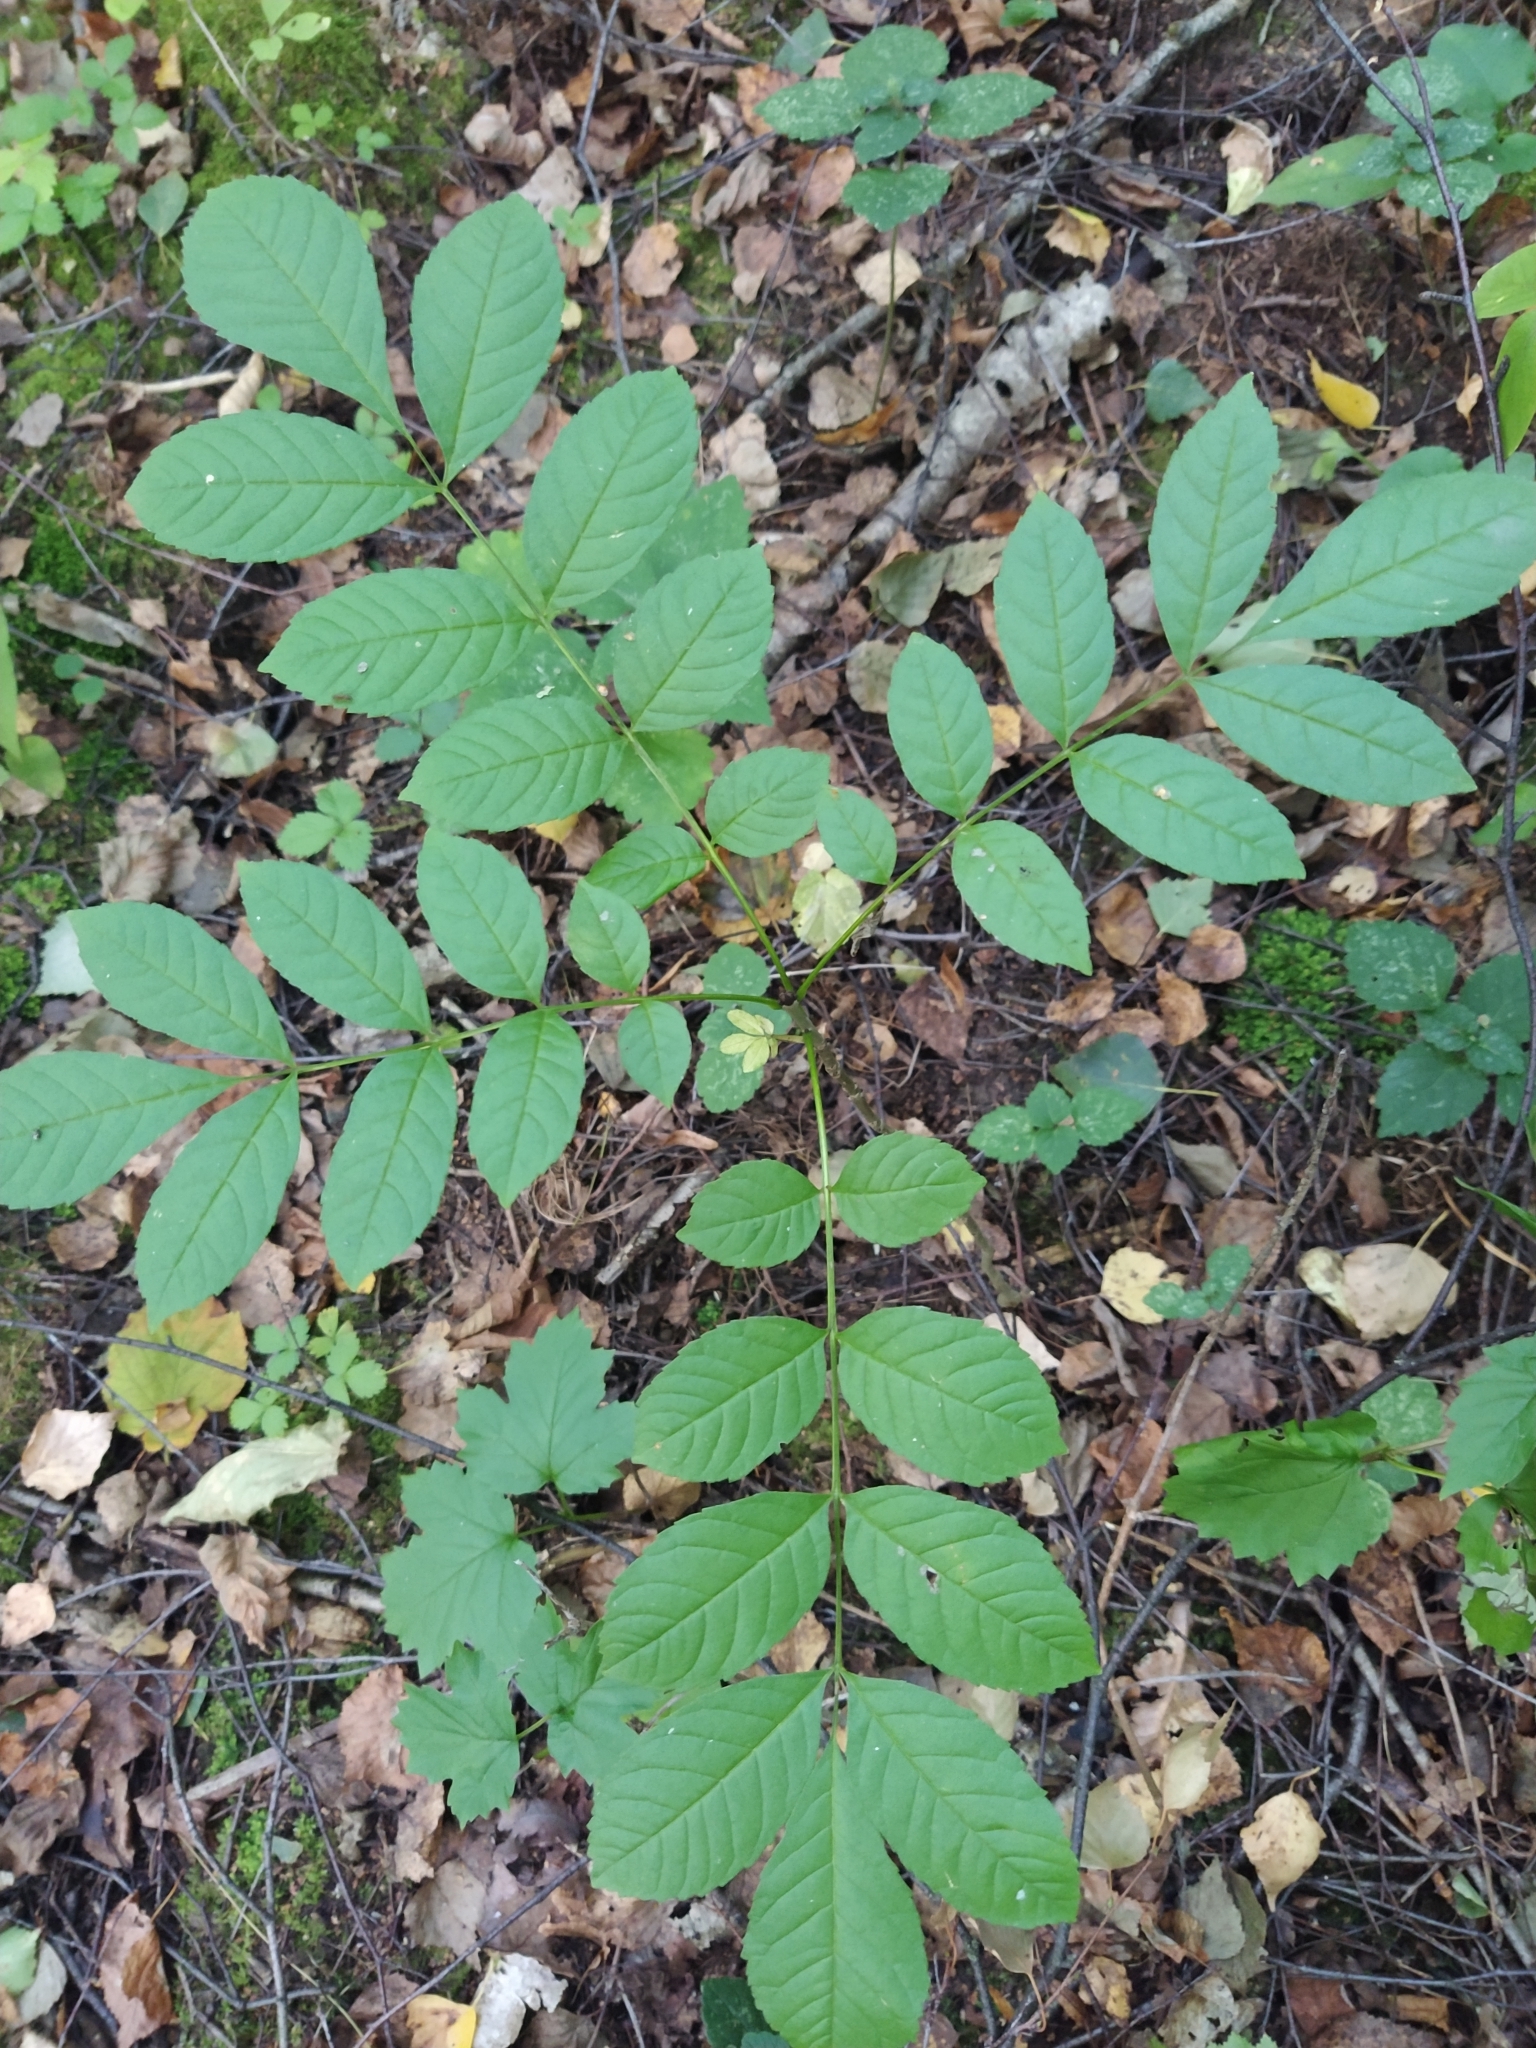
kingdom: Plantae
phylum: Tracheophyta
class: Magnoliopsida
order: Lamiales
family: Oleaceae
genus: Fraxinus
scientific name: Fraxinus excelsior
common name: European ash
